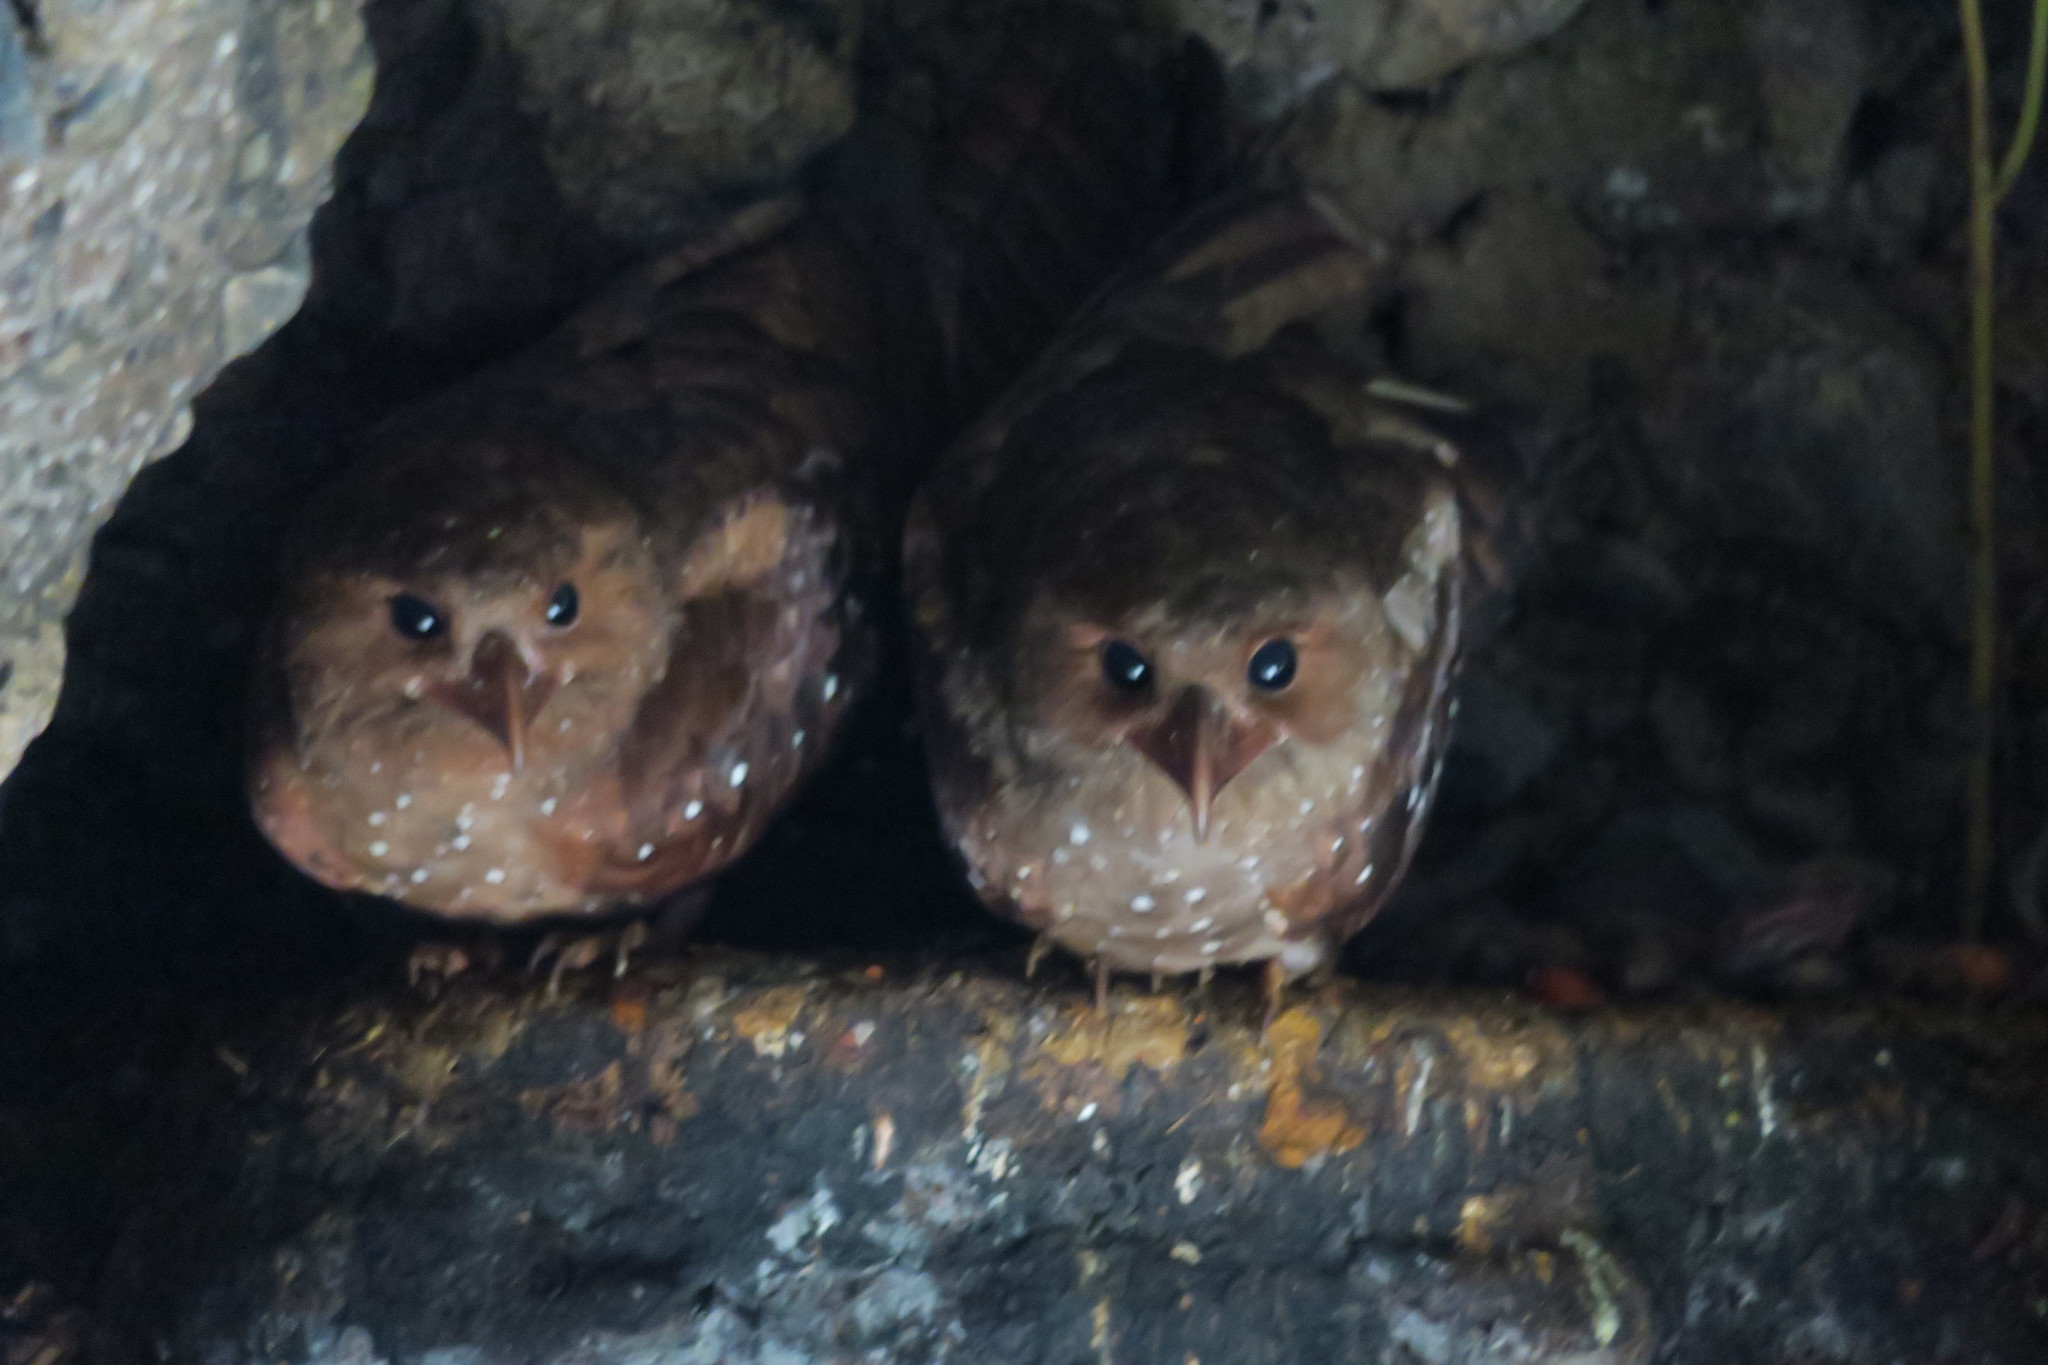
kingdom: Animalia
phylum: Chordata
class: Aves
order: Steatornithiformes
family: Steatornithidae
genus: Steatornis
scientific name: Steatornis caripensis
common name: Oilbird
